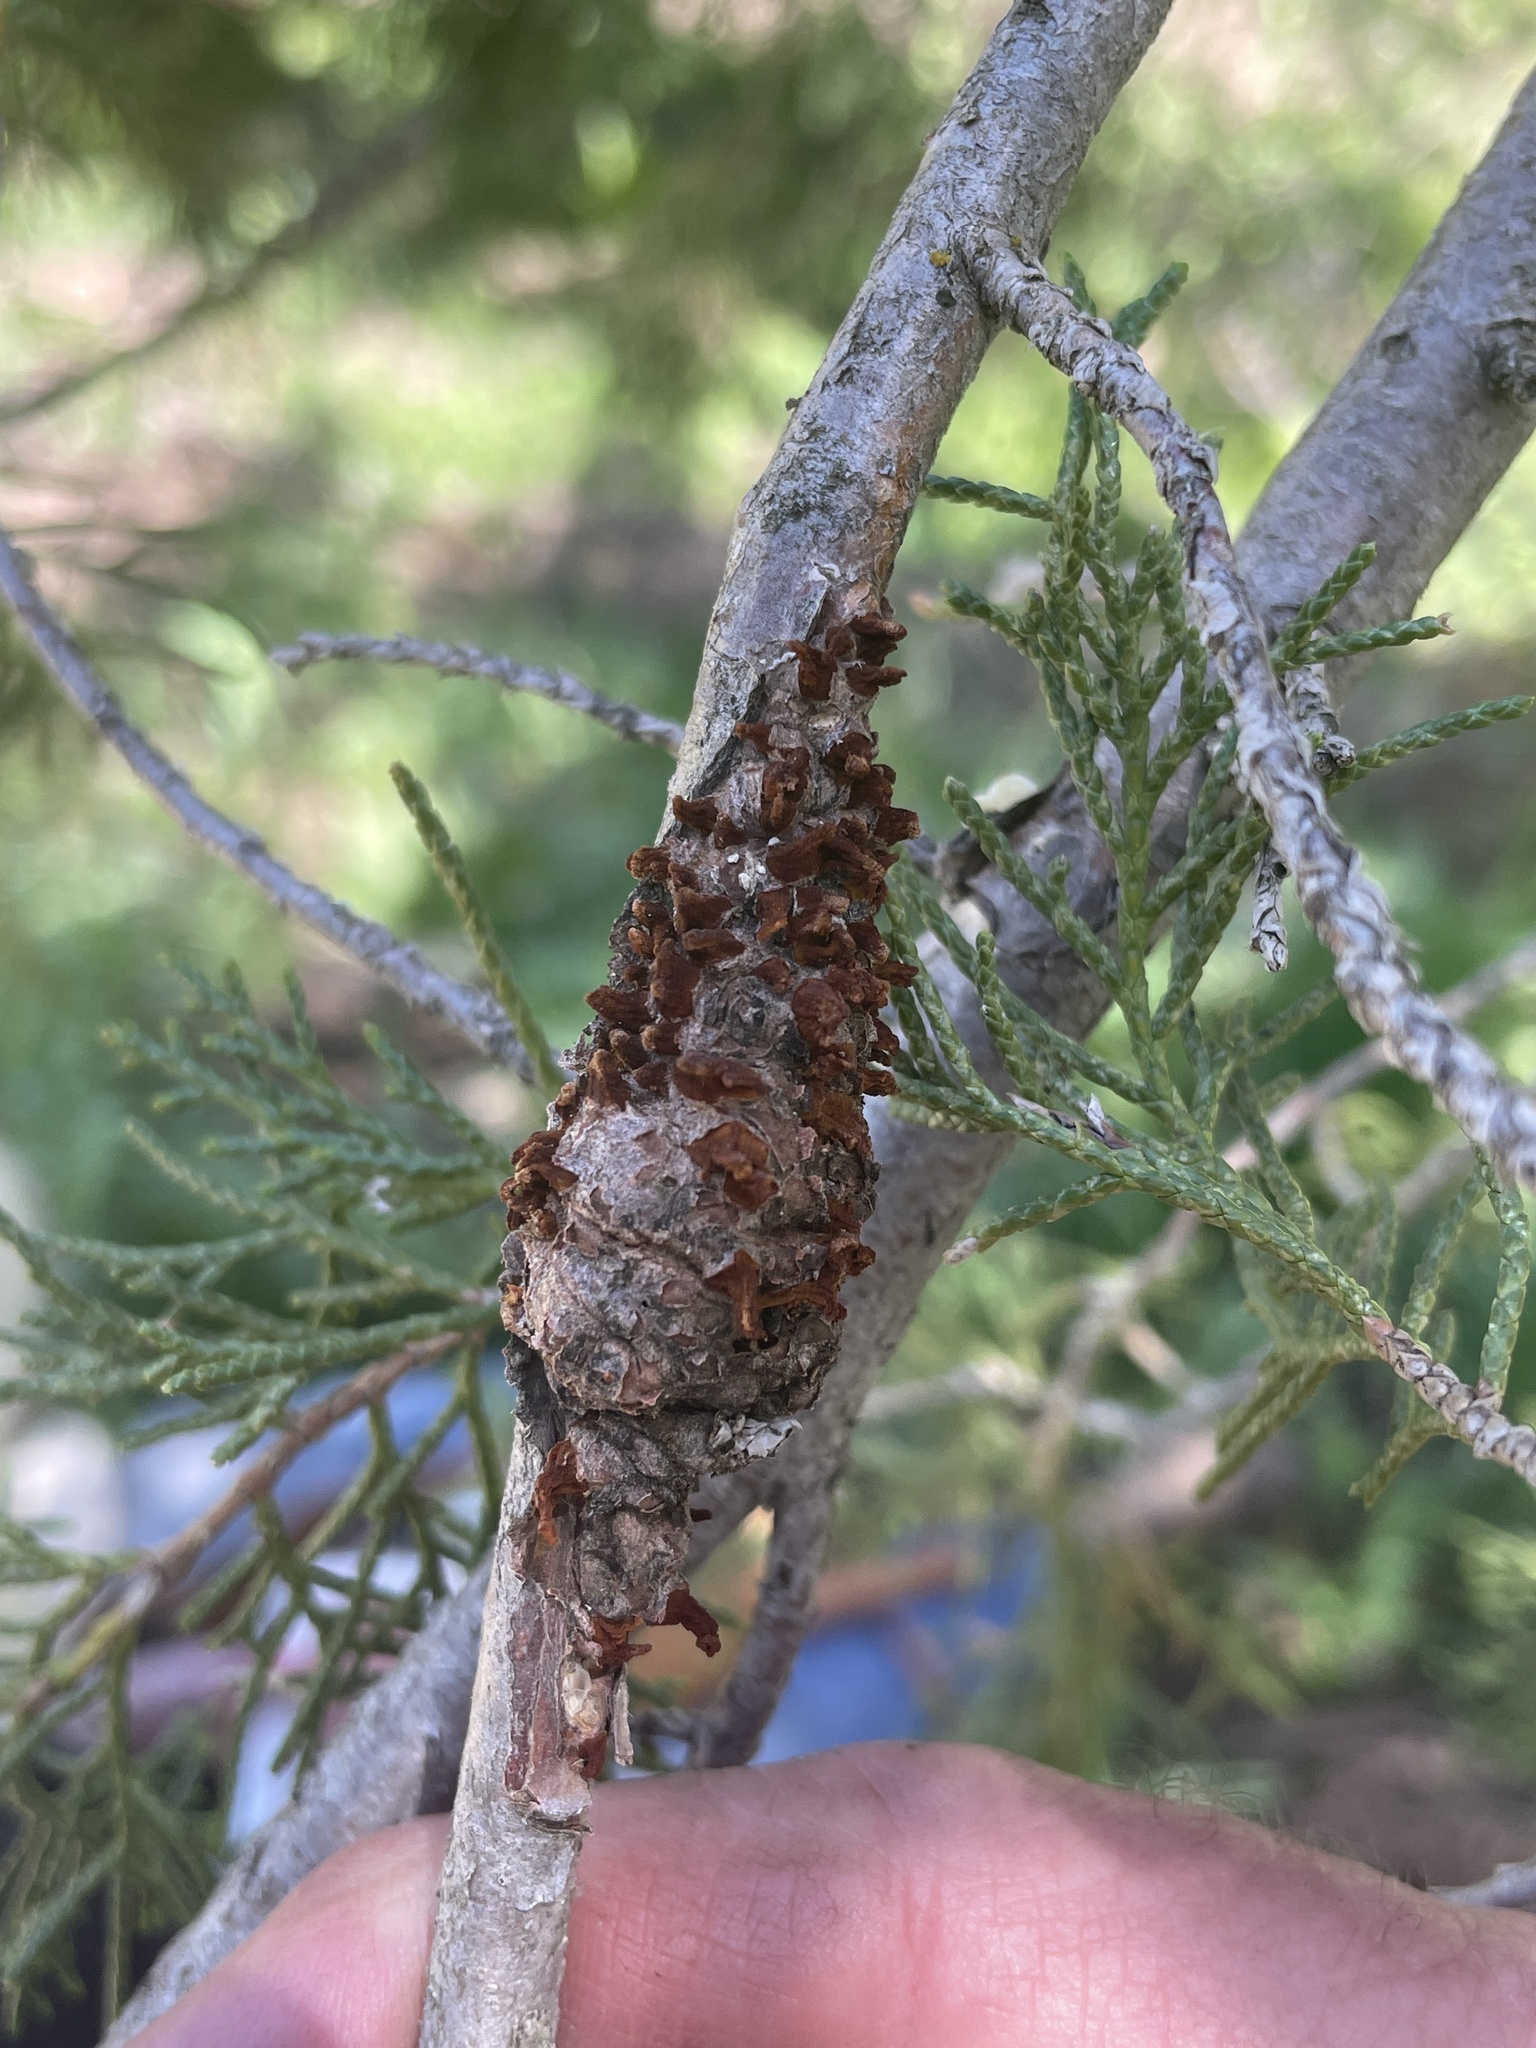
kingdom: Fungi
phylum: Basidiomycota
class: Pucciniomycetes
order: Pucciniales
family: Gymnosporangiaceae
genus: Gymnosporangium
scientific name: Gymnosporangium clavariiforme
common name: Tongues of fire
